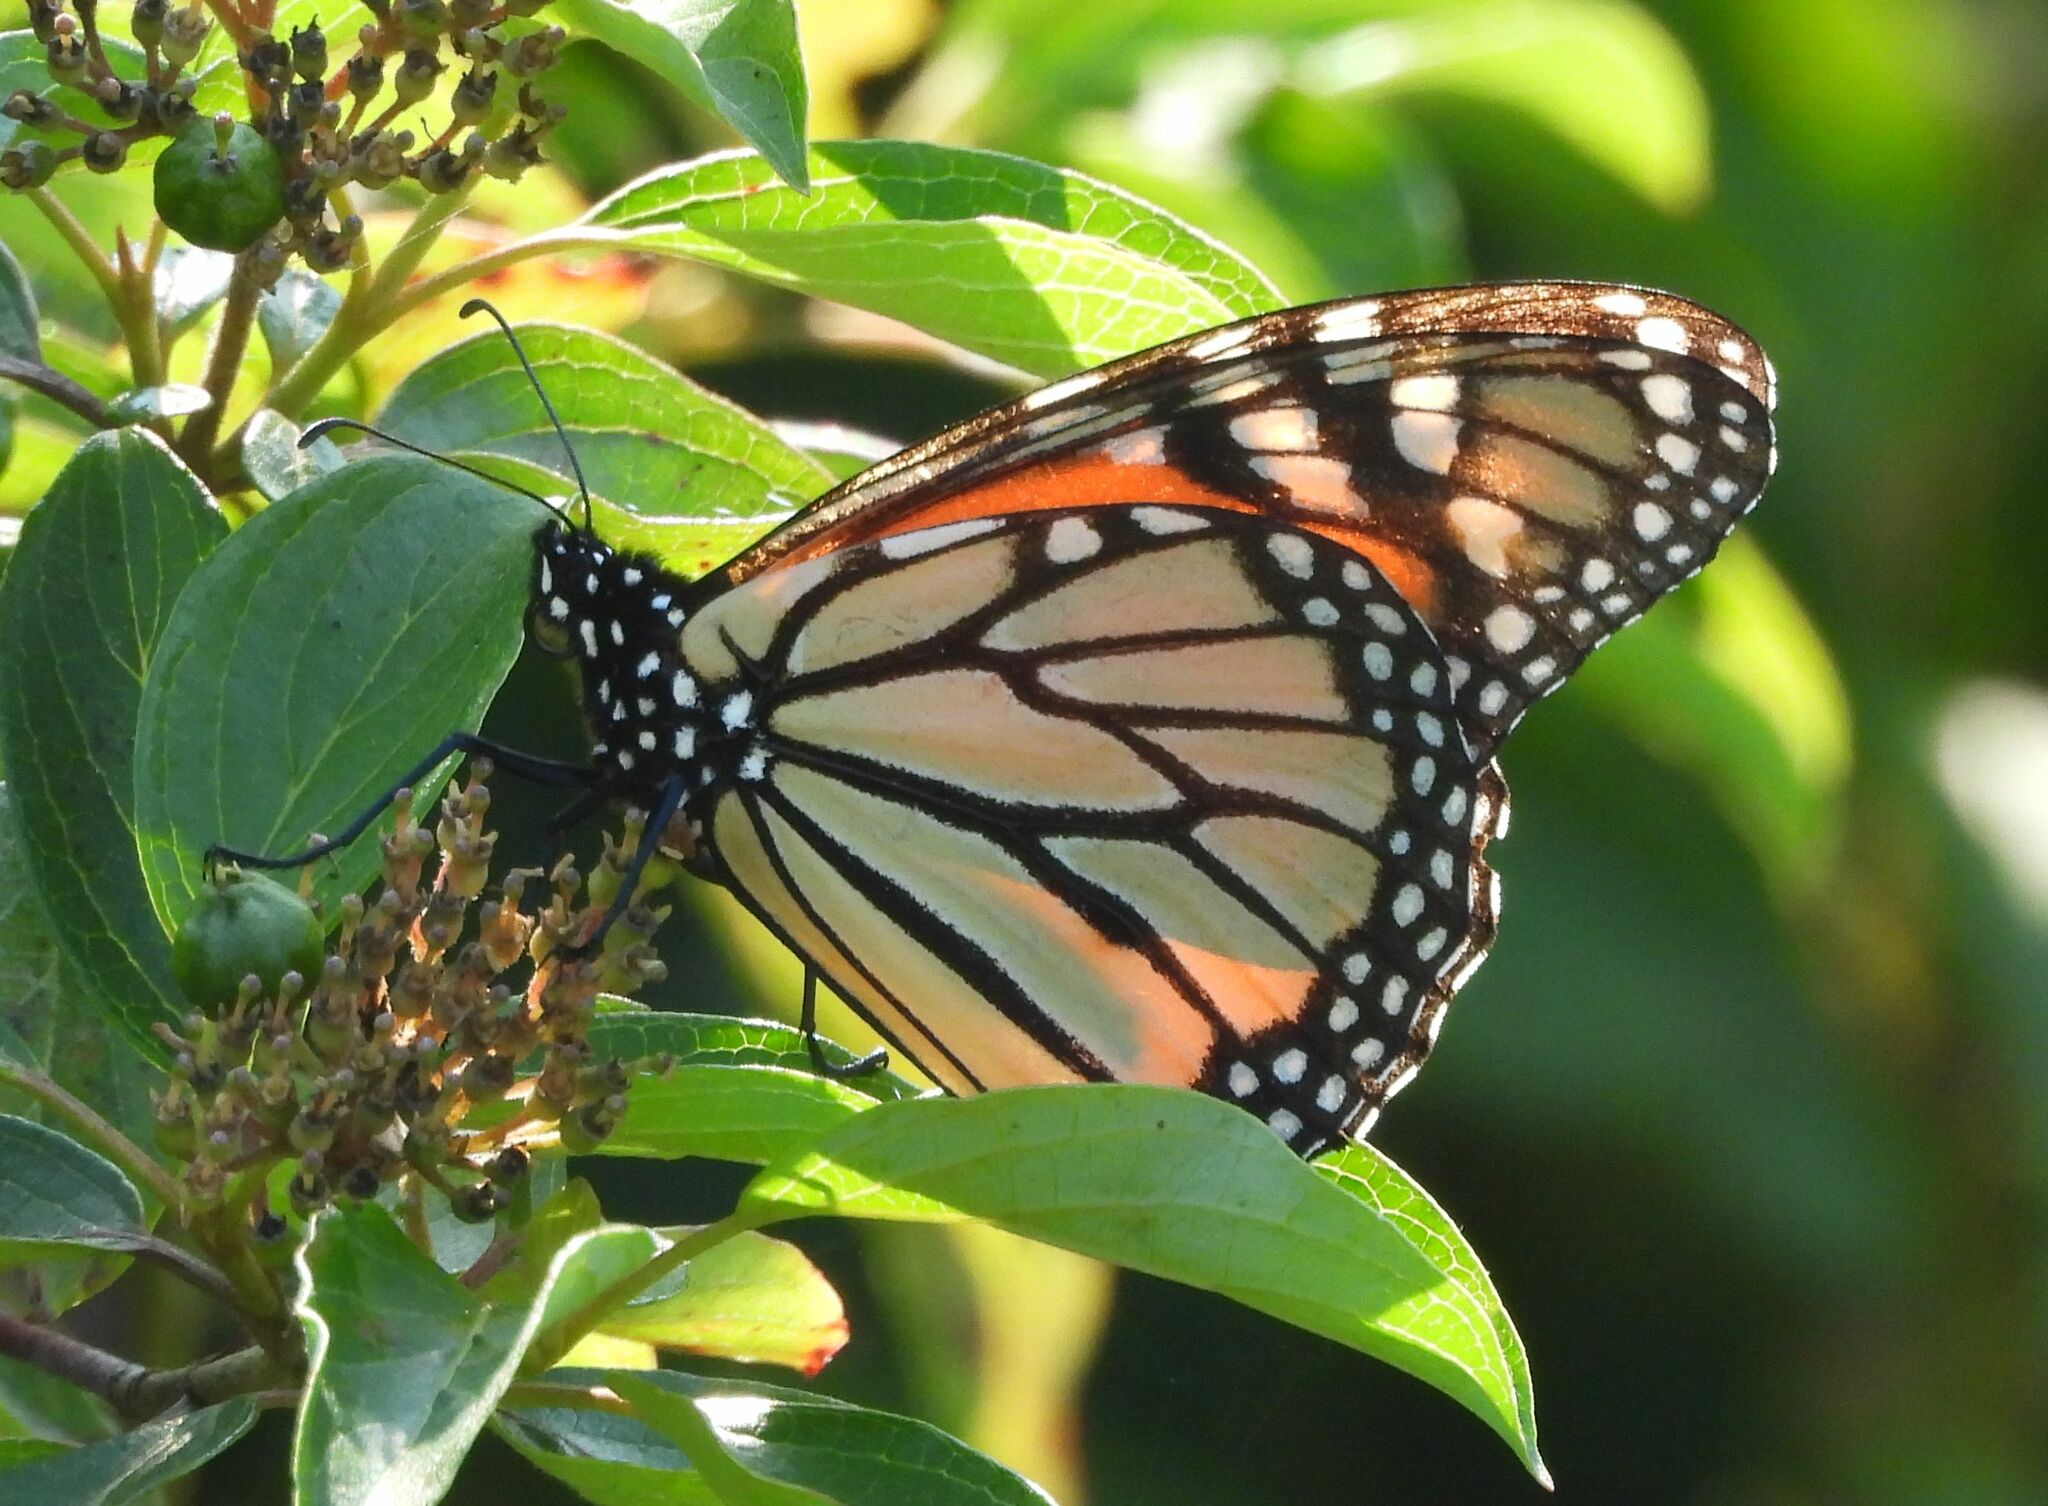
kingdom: Animalia
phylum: Arthropoda
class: Insecta
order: Lepidoptera
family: Nymphalidae
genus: Danaus
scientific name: Danaus plexippus
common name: Monarch
